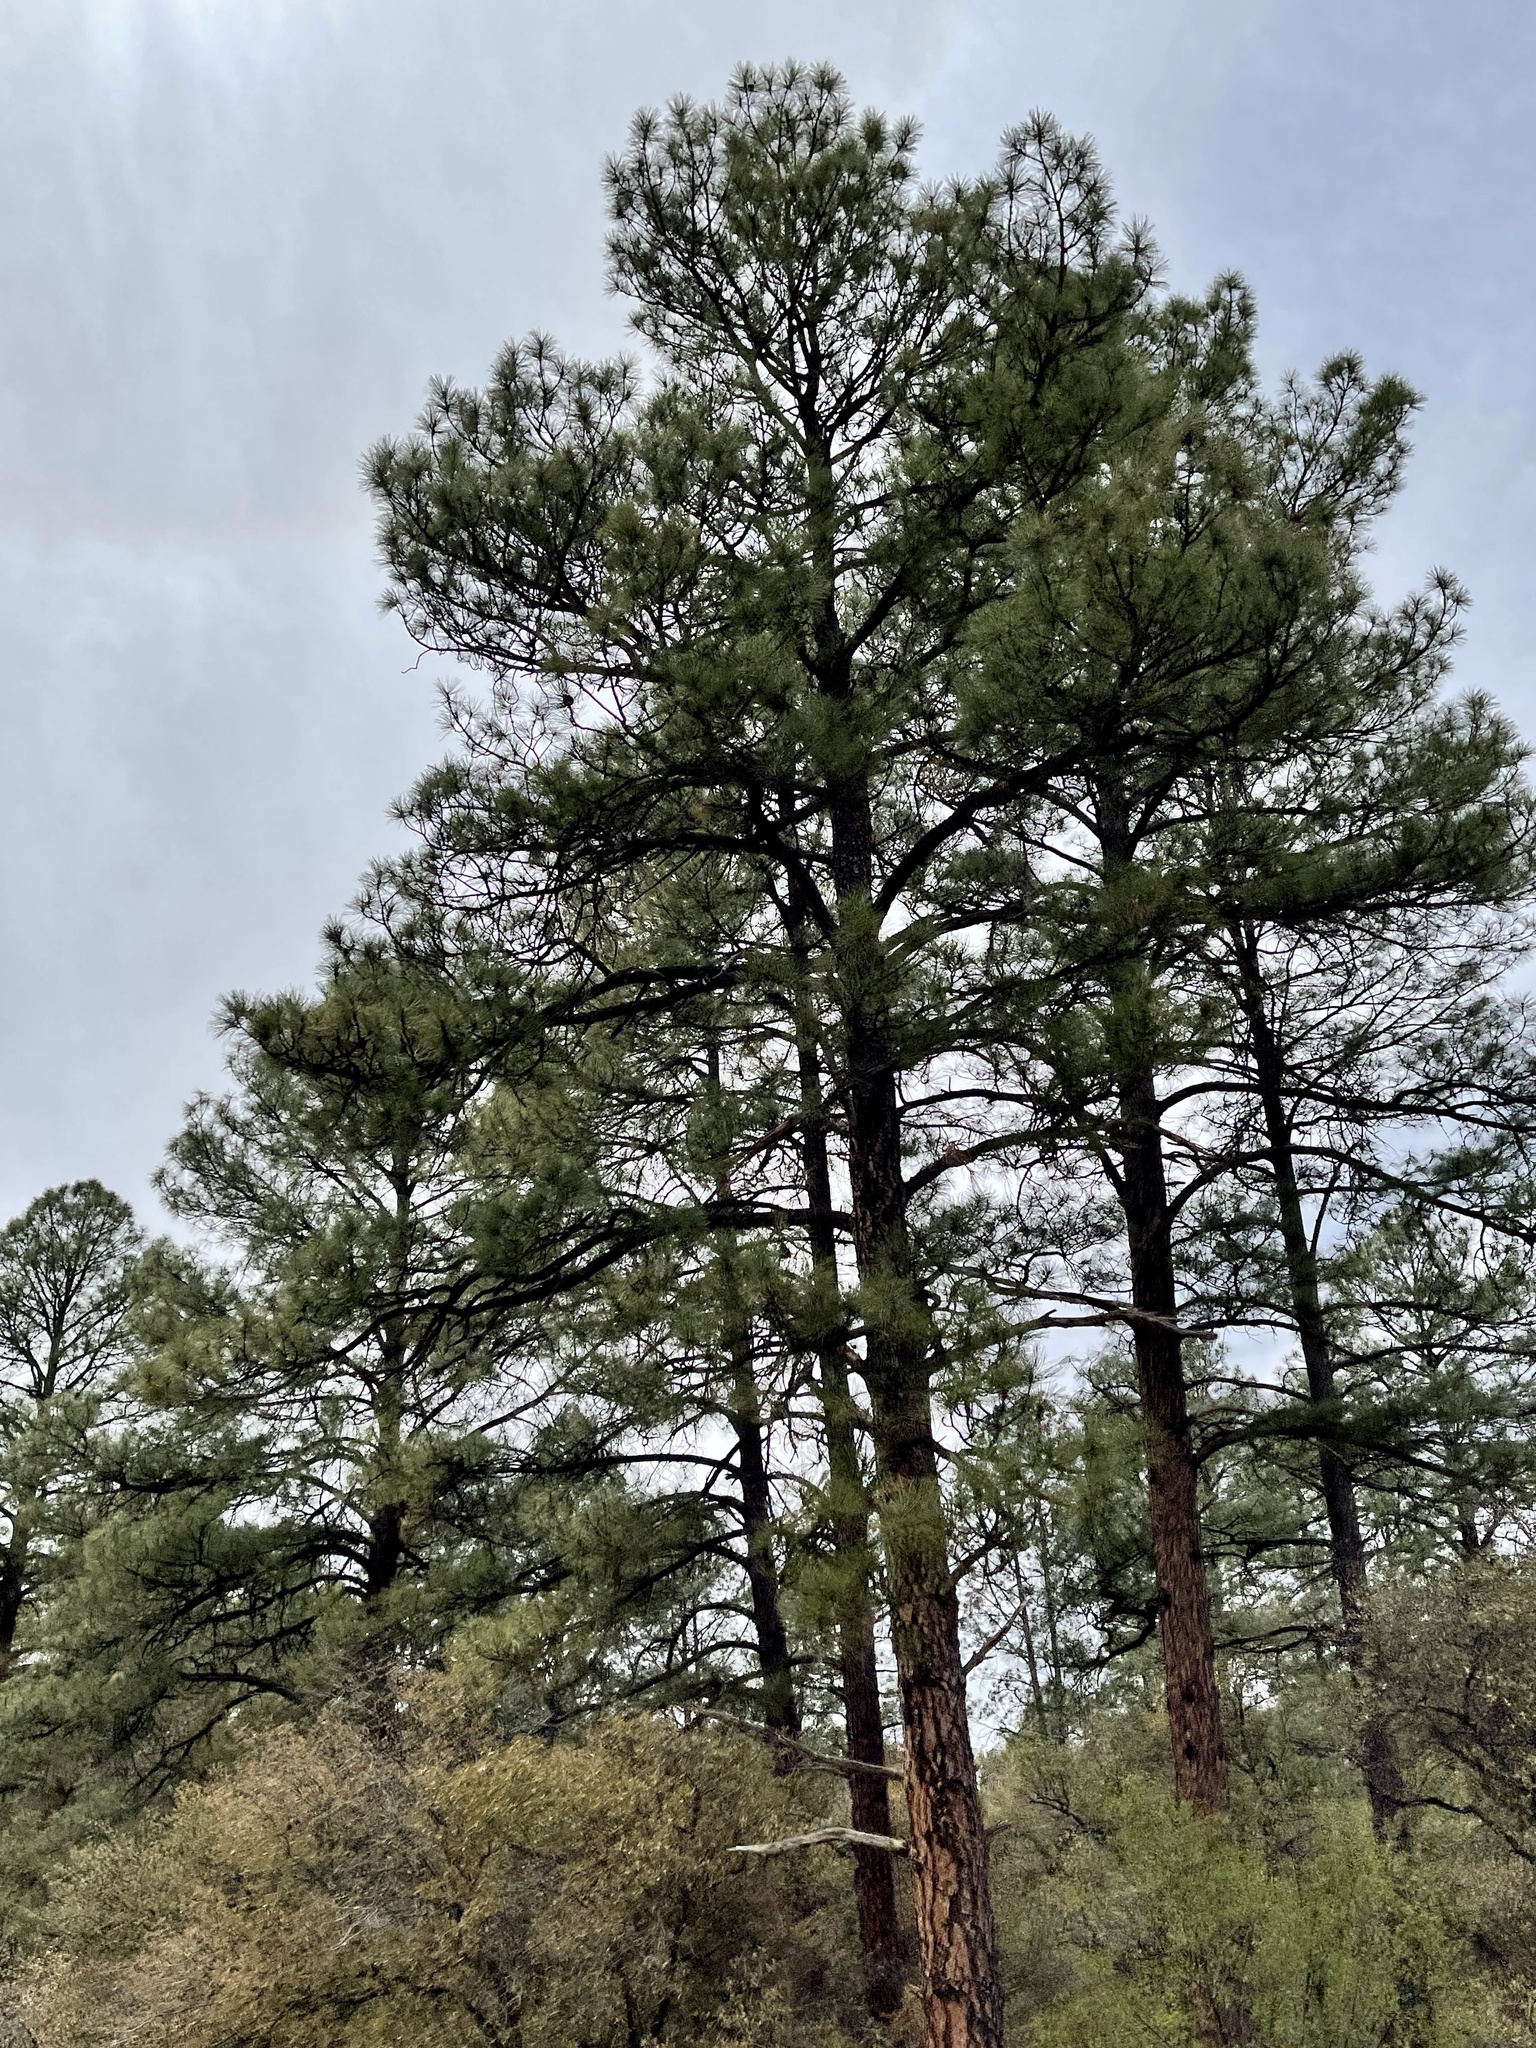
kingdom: Plantae
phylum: Tracheophyta
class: Pinopsida
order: Pinales
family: Pinaceae
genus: Pinus
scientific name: Pinus ponderosa
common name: Western yellow-pine
